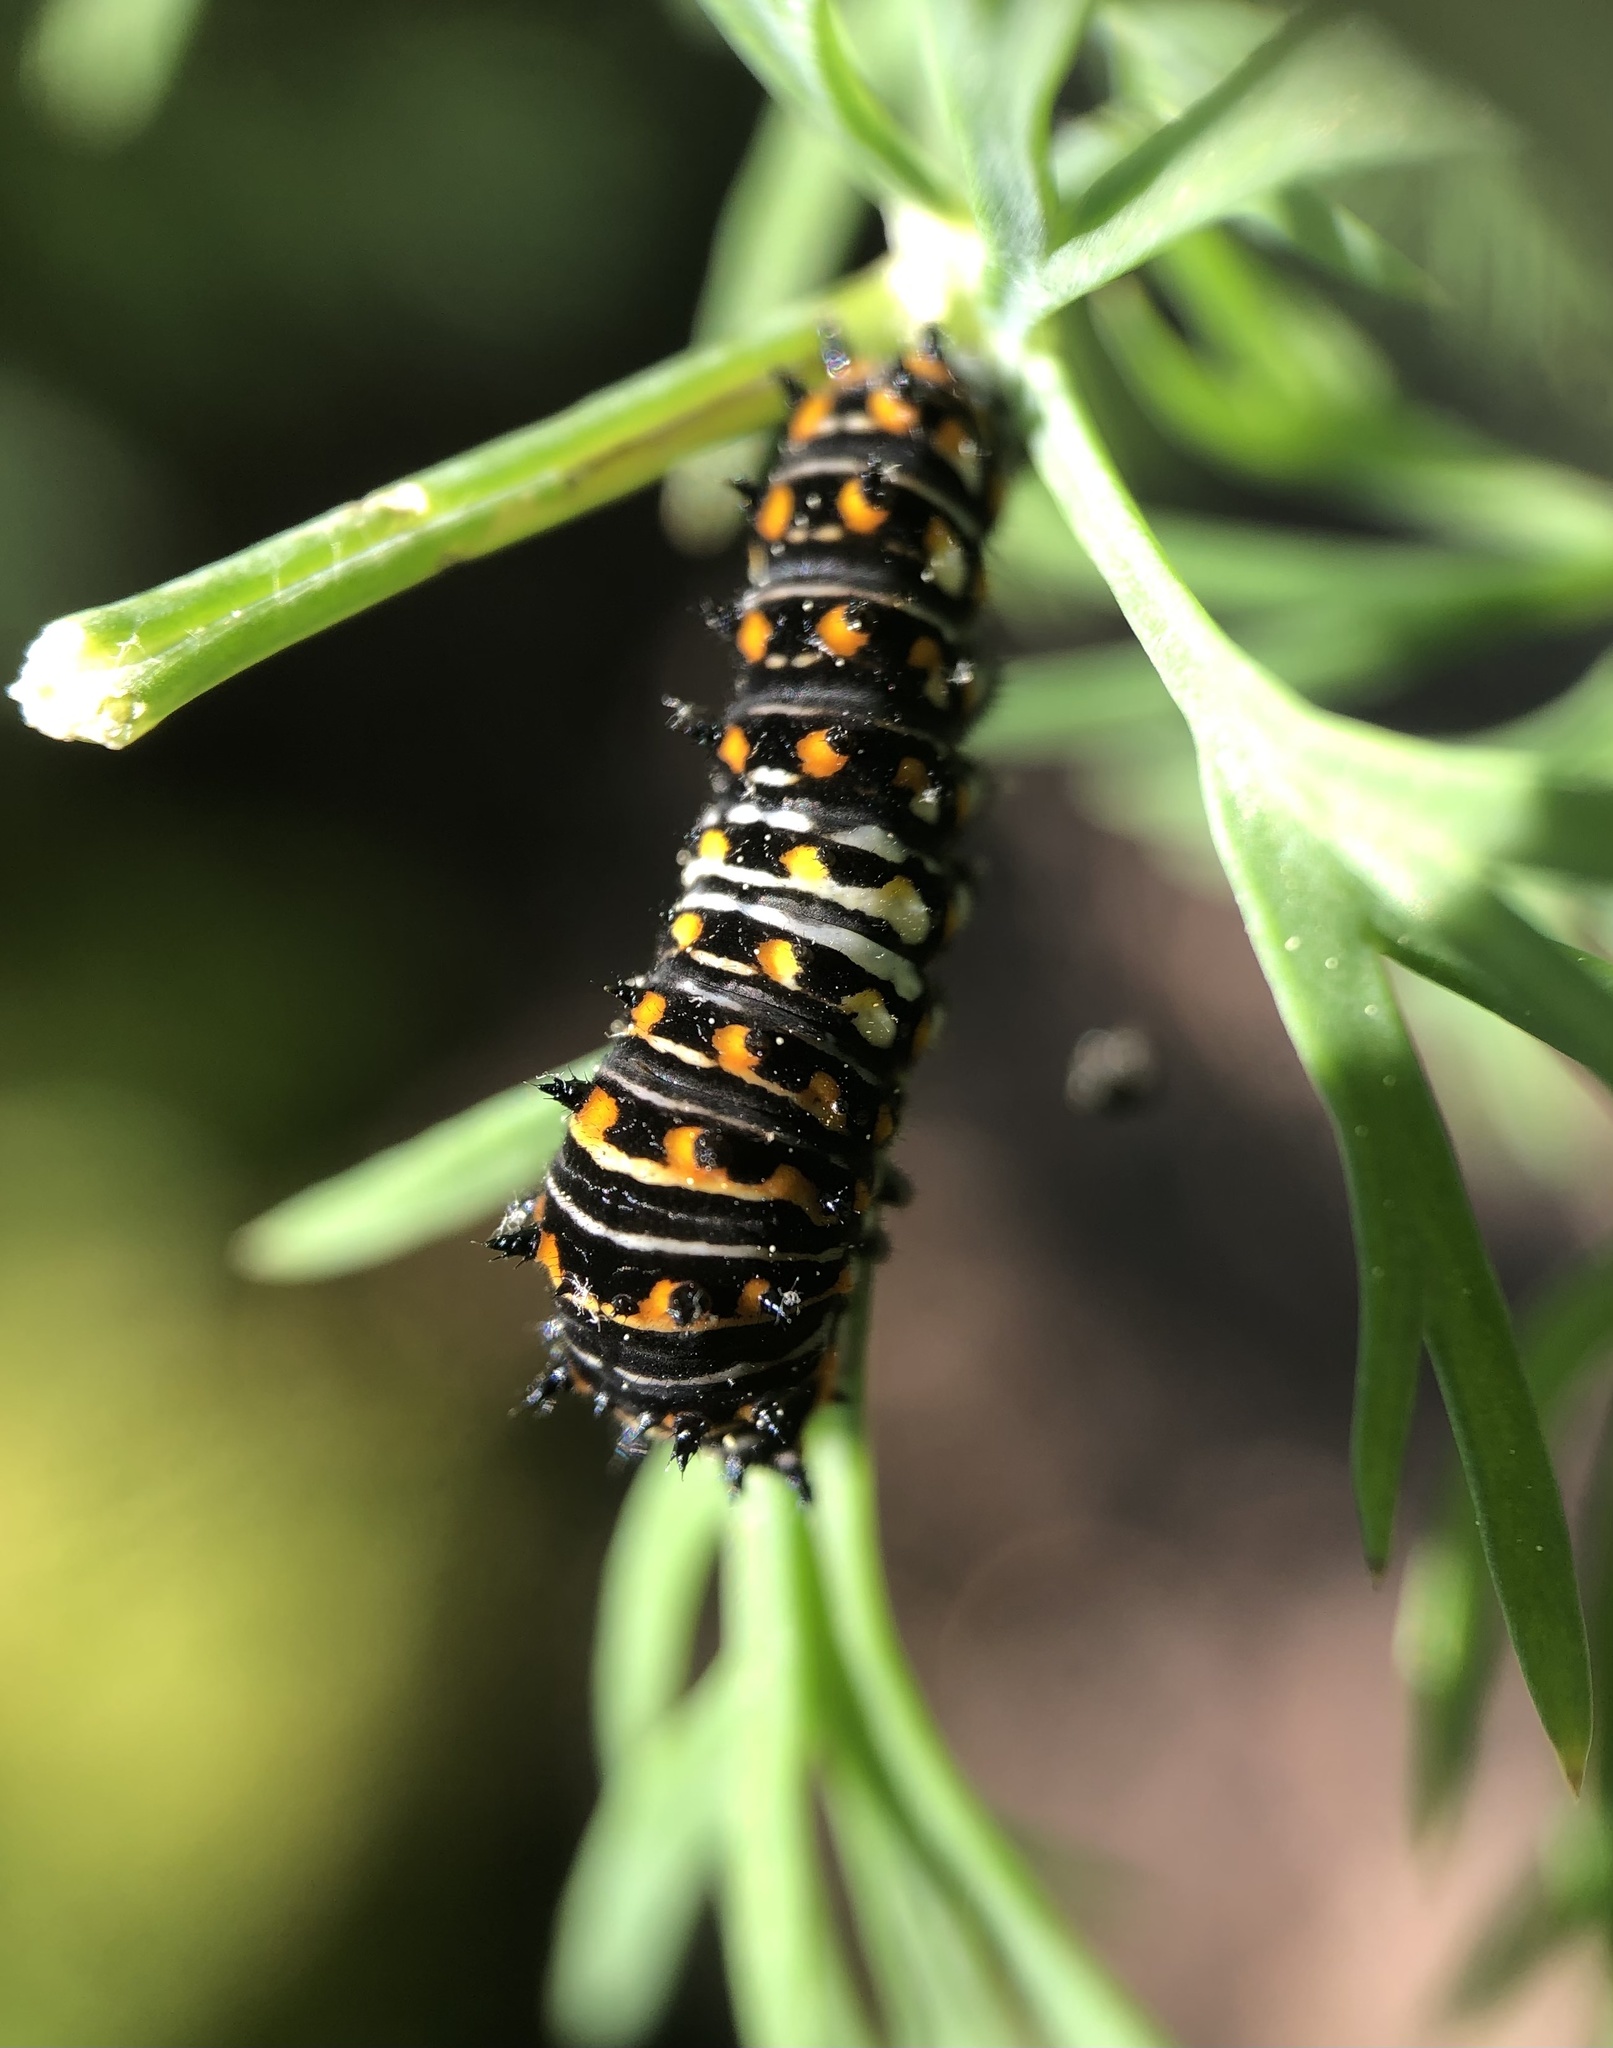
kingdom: Animalia
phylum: Arthropoda
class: Insecta
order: Lepidoptera
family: Papilionidae
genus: Papilio
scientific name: Papilio polyxenes
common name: Black swallowtail
